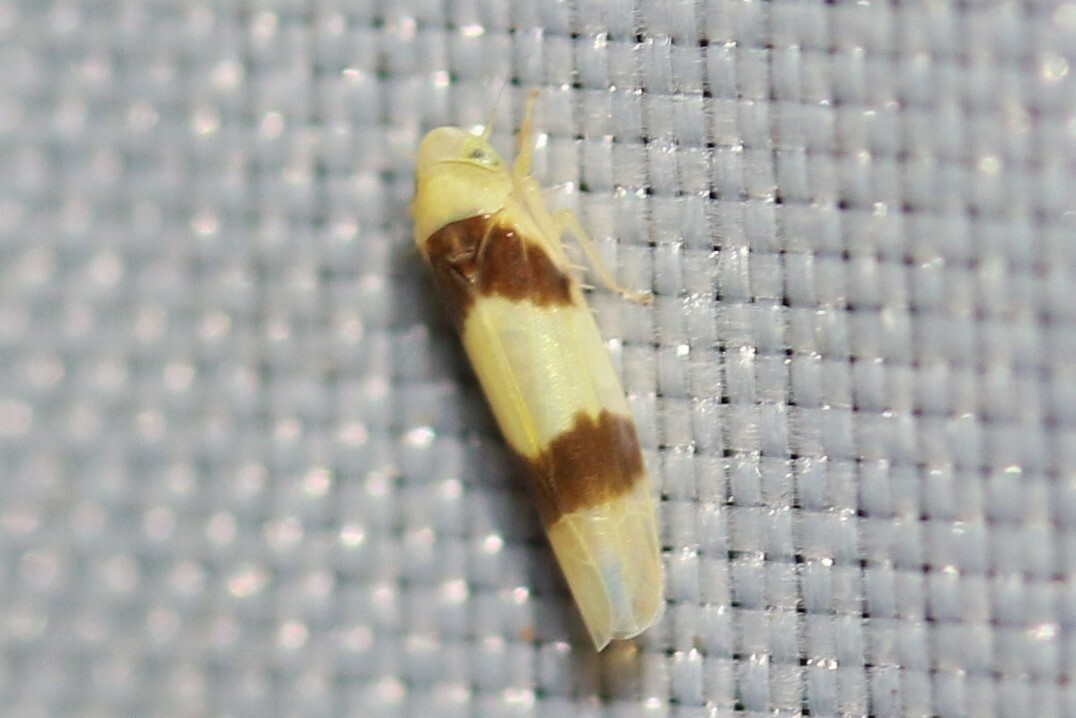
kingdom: Animalia
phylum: Arthropoda
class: Insecta
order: Hemiptera
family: Cicadellidae
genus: Zonocyba
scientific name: Zonocyba bifasciata
